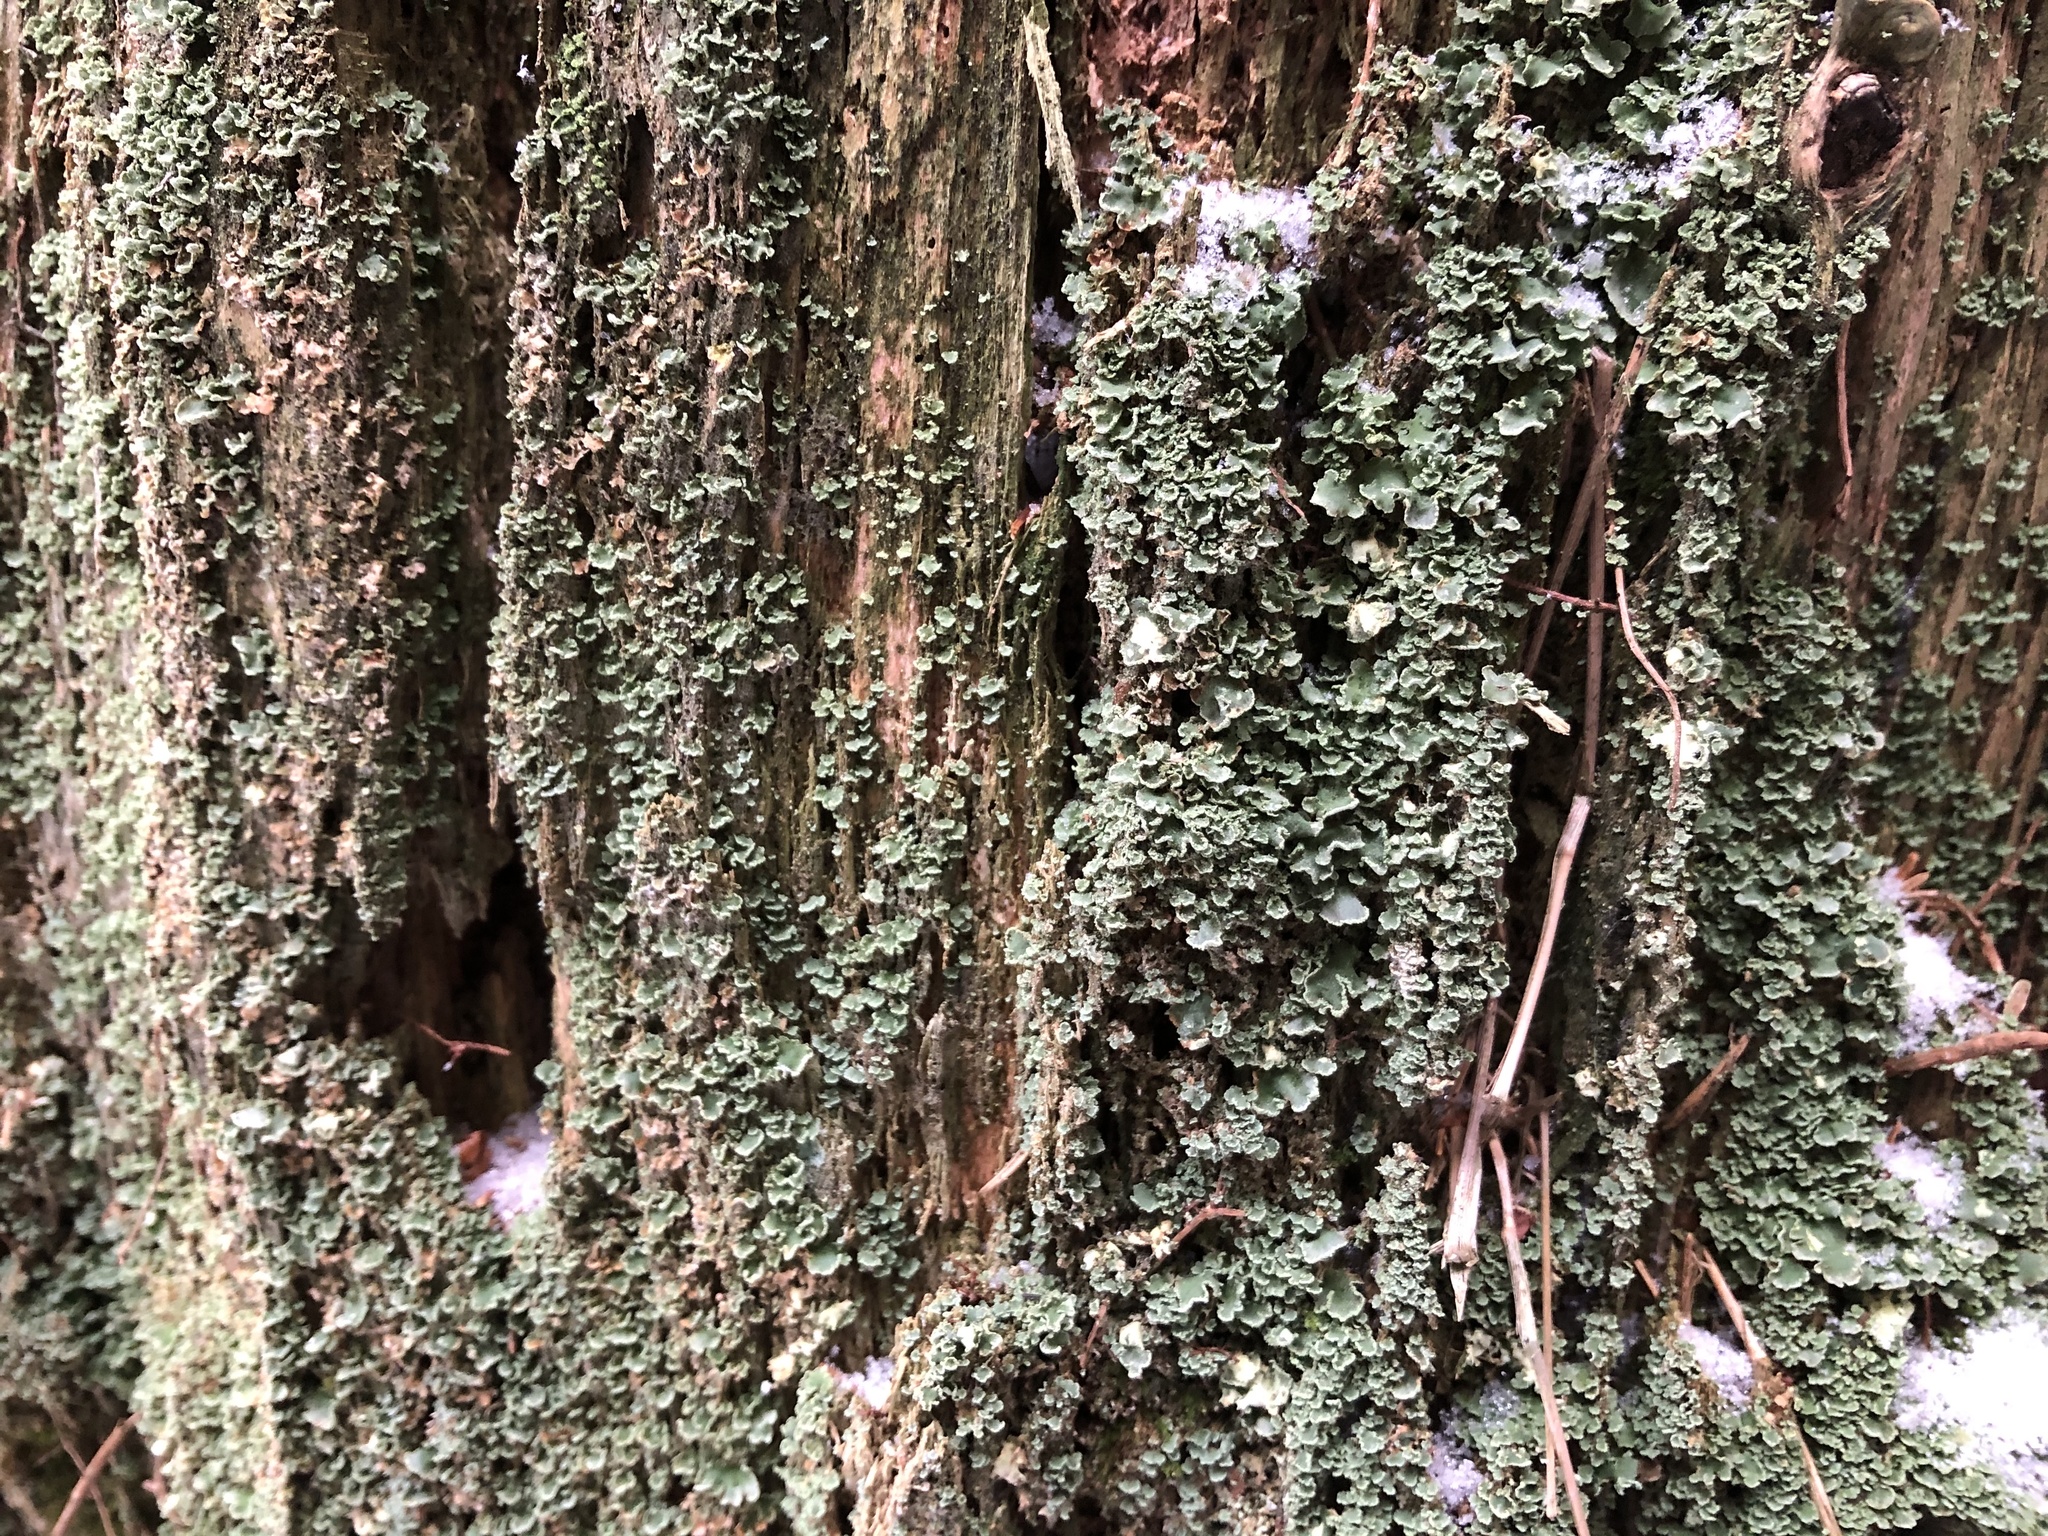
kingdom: Fungi
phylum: Ascomycota
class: Lecanoromycetes
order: Lecanorales
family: Cladoniaceae
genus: Cladonia
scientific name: Cladonia digitata
